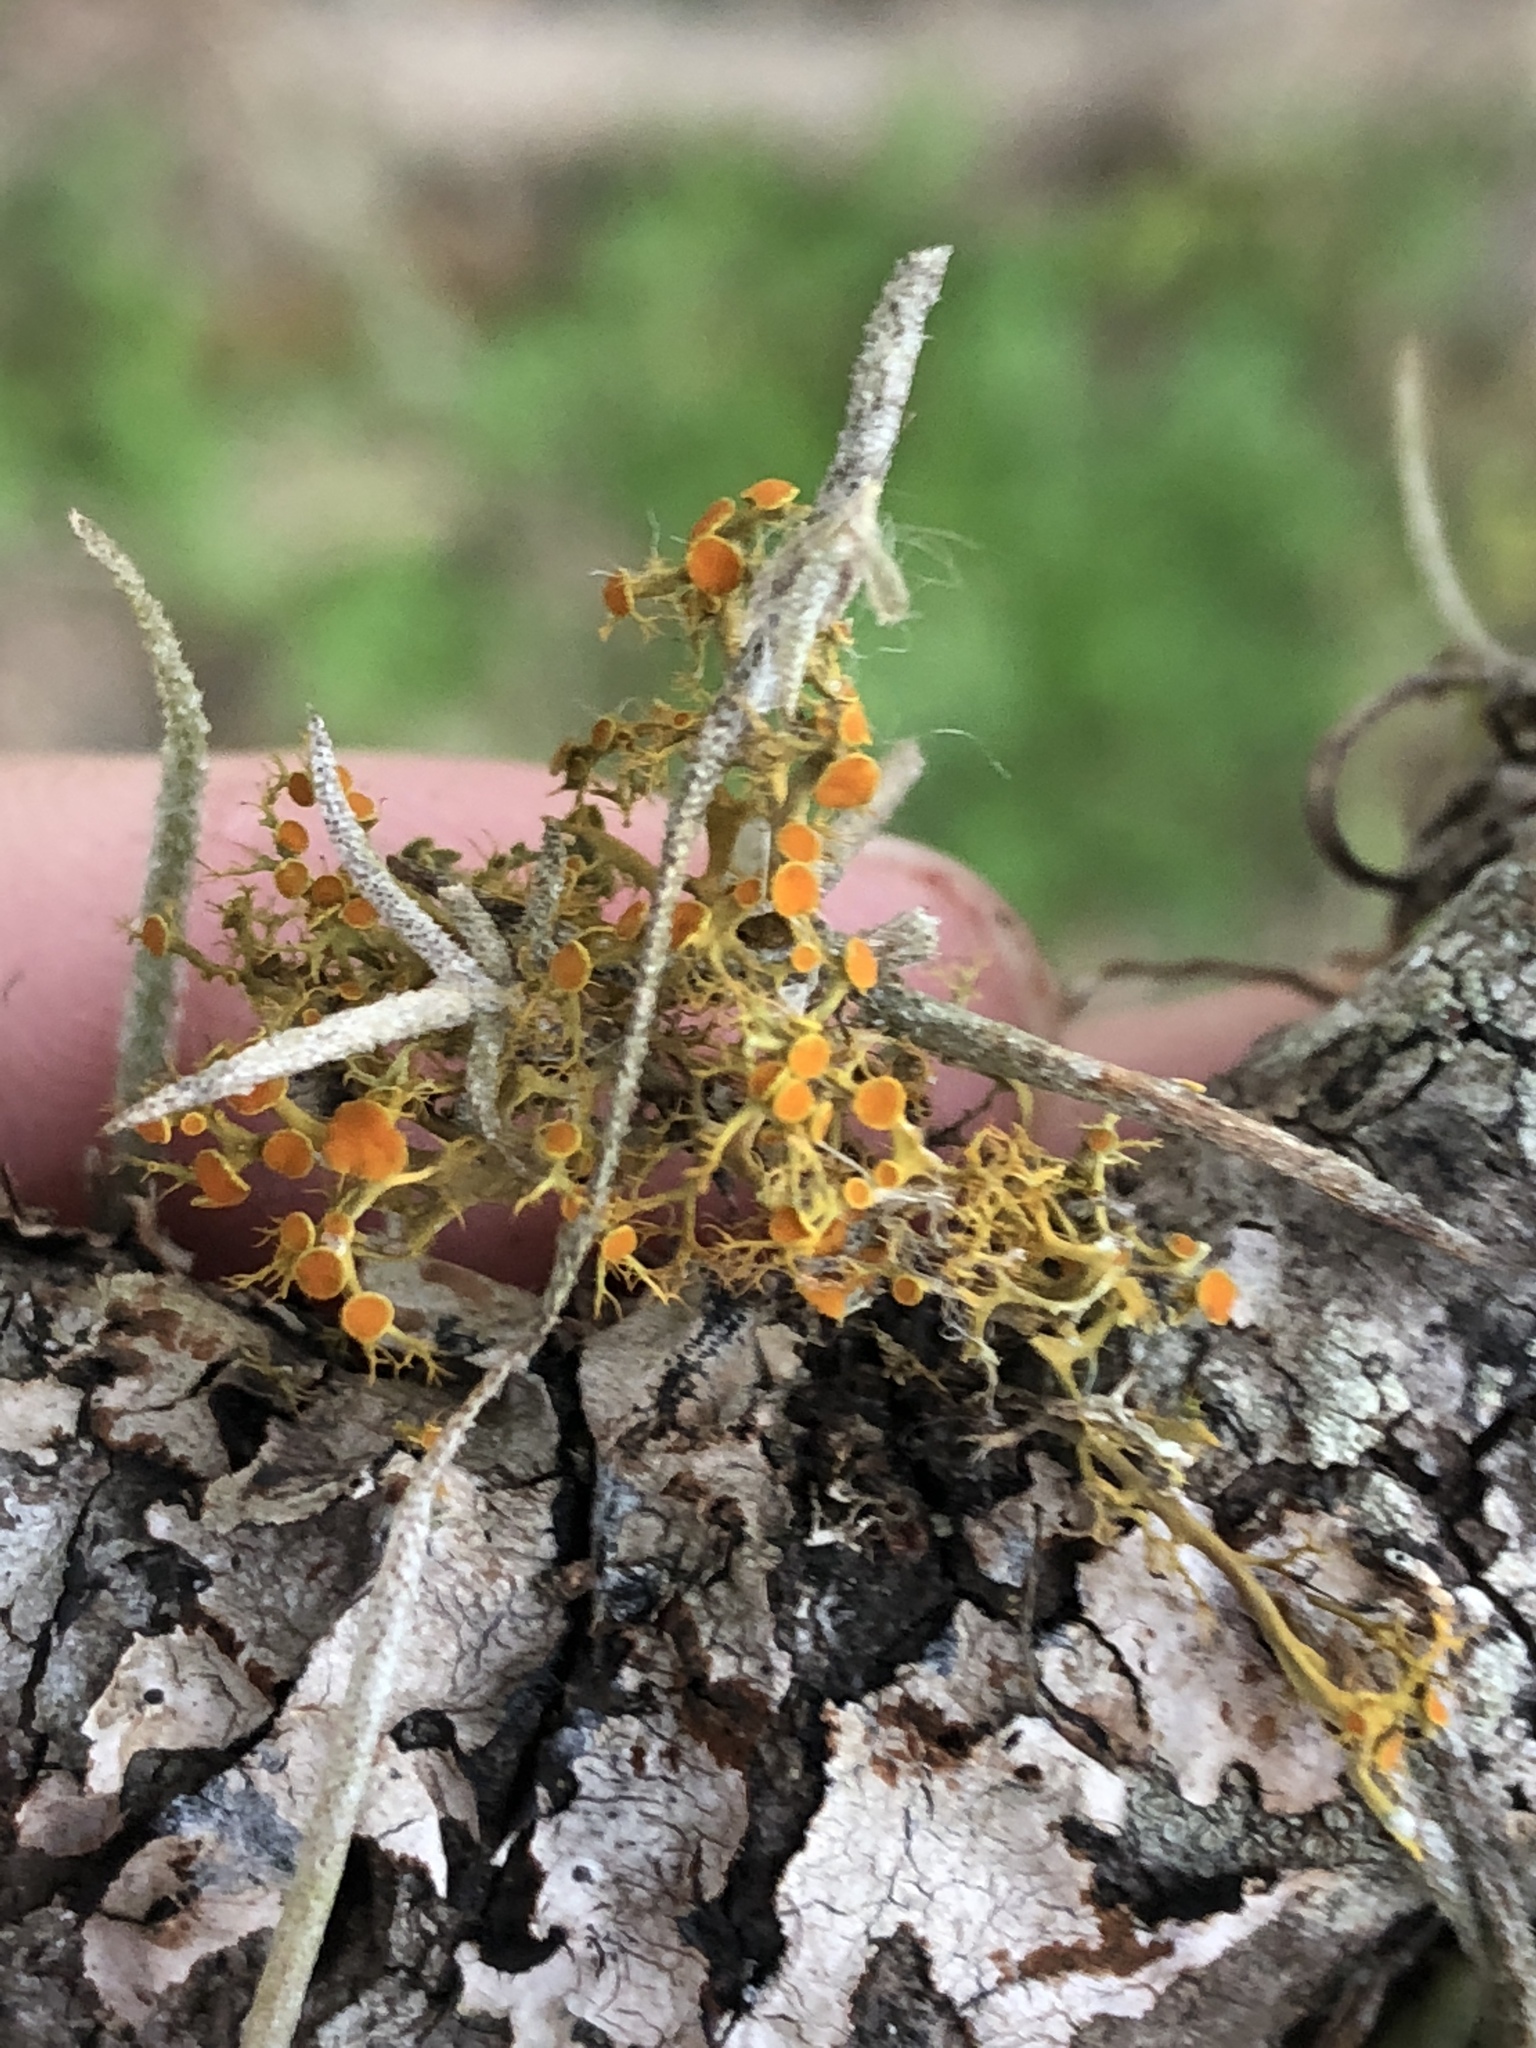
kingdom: Fungi
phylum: Ascomycota
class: Lecanoromycetes
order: Teloschistales
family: Teloschistaceae
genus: Teloschistes
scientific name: Teloschistes exilis
